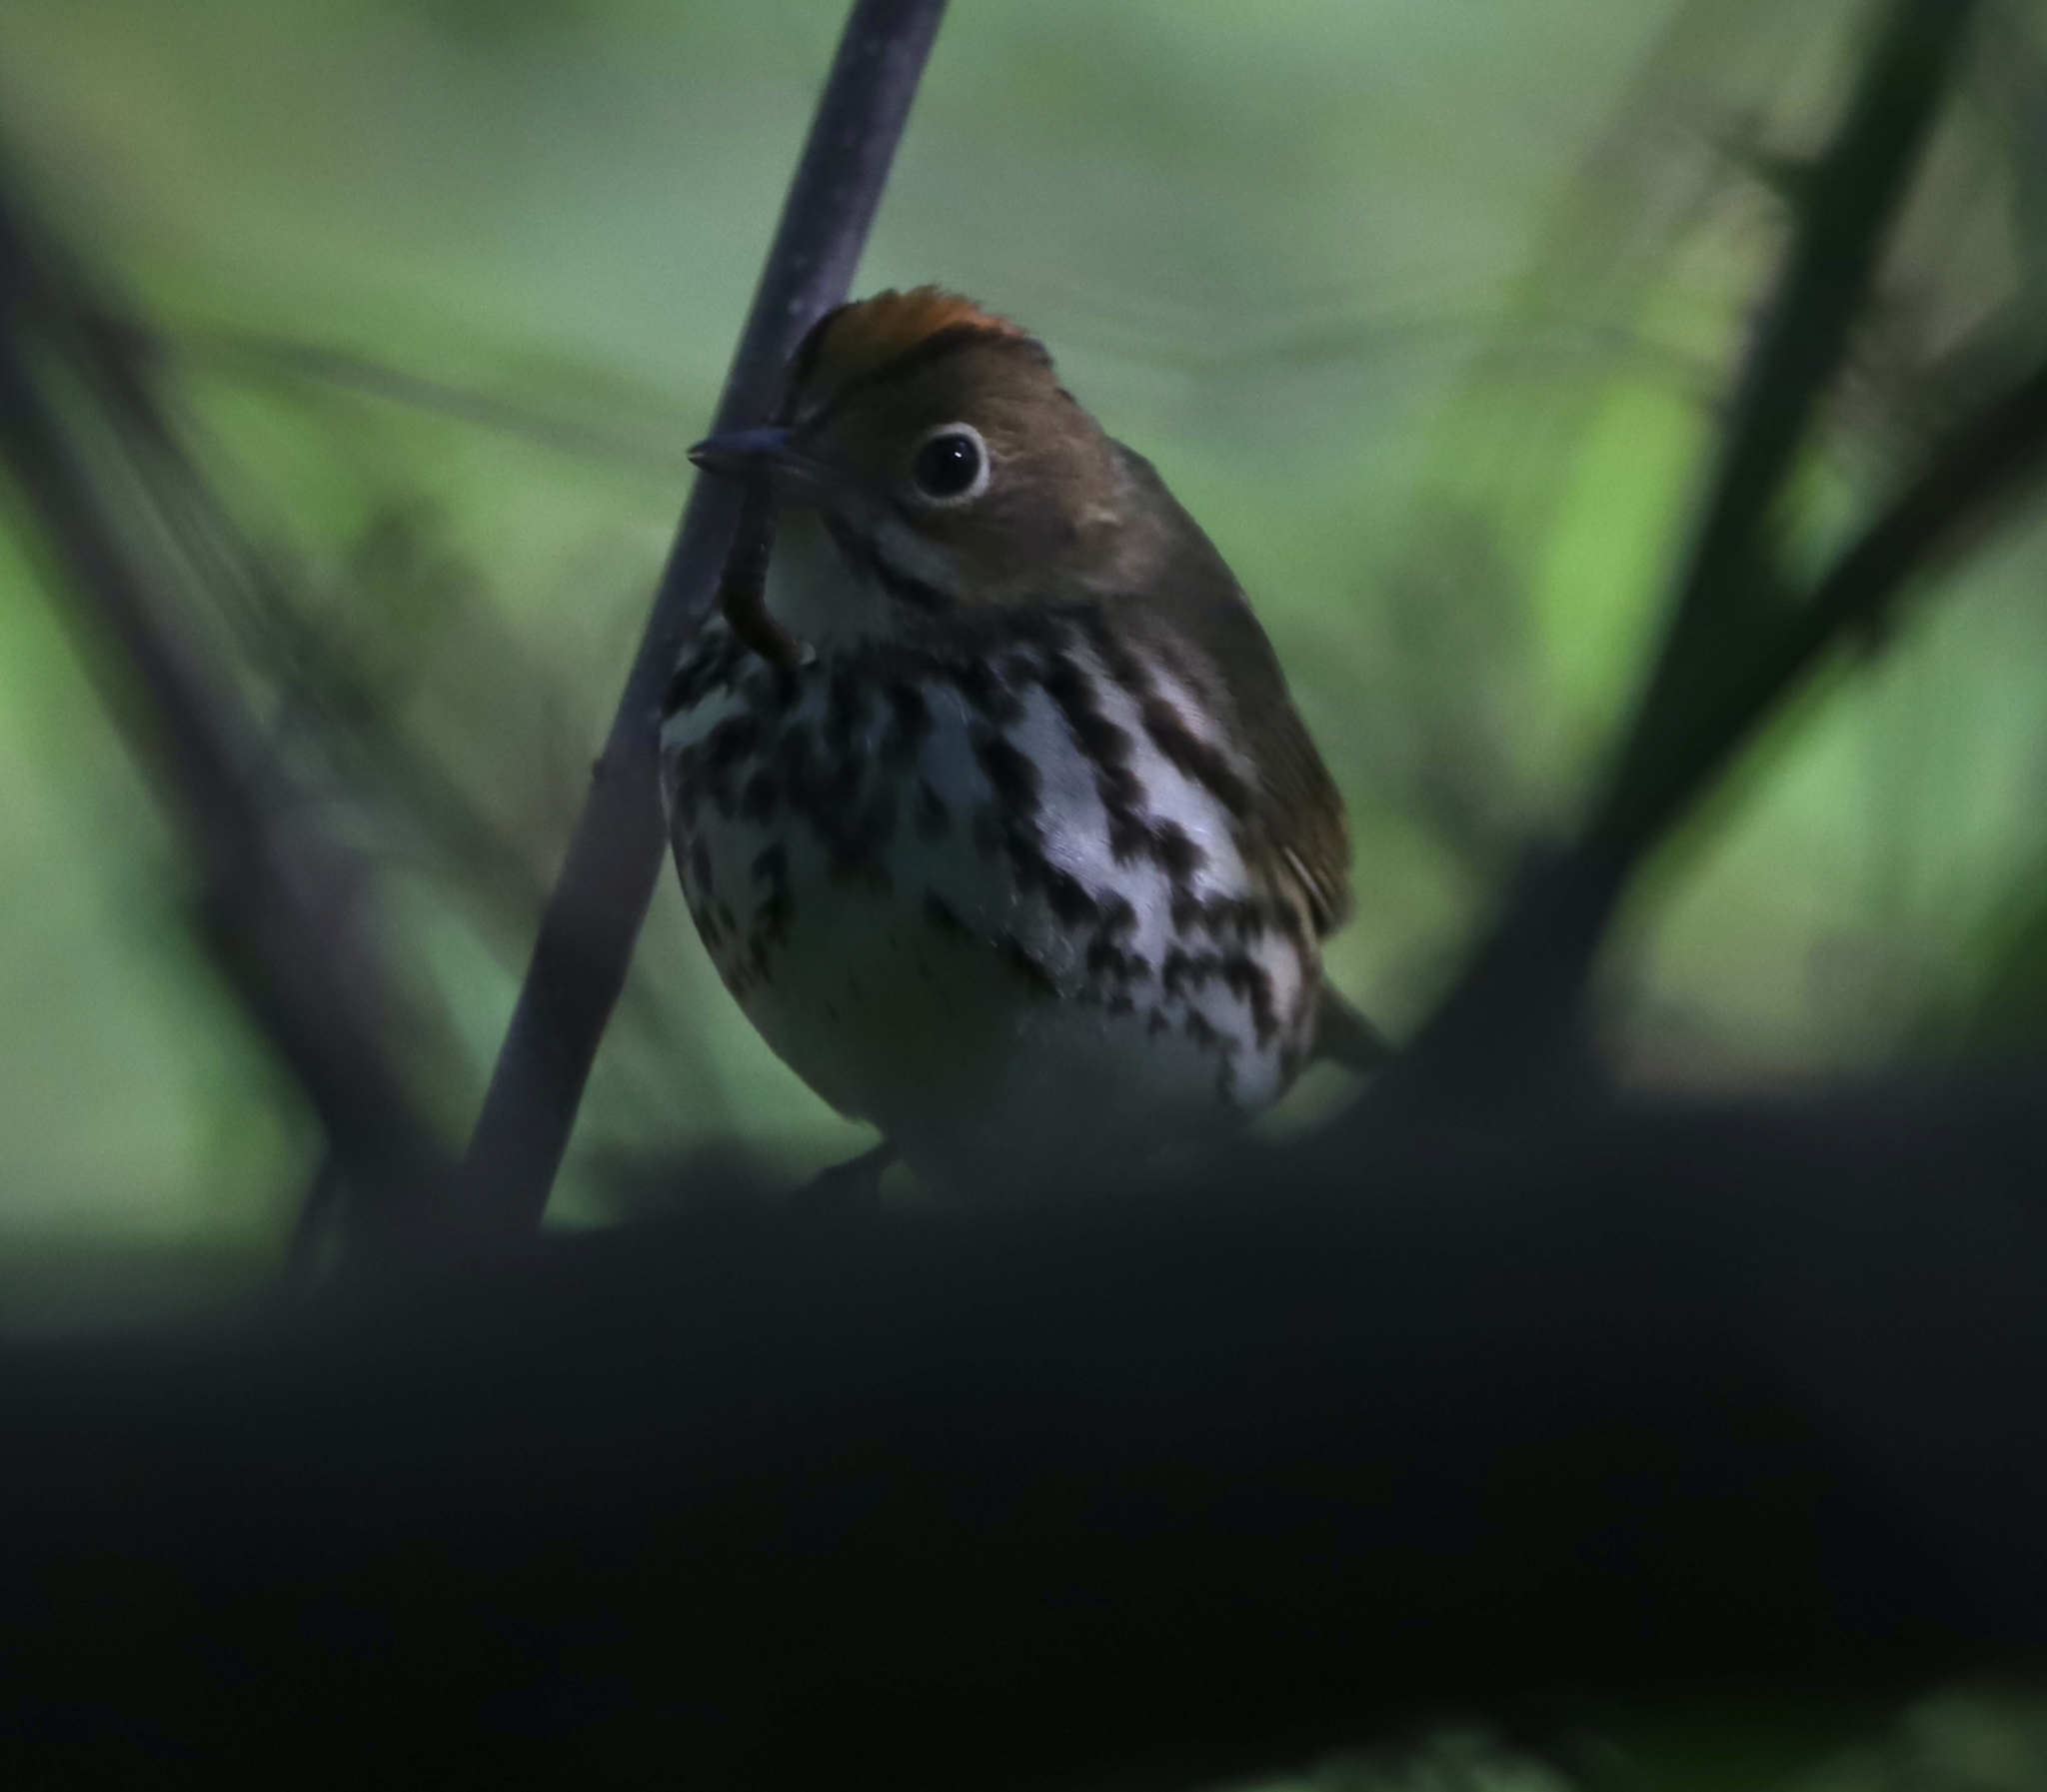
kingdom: Animalia
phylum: Chordata
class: Aves
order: Passeriformes
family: Parulidae
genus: Seiurus
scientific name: Seiurus aurocapilla
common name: Ovenbird
